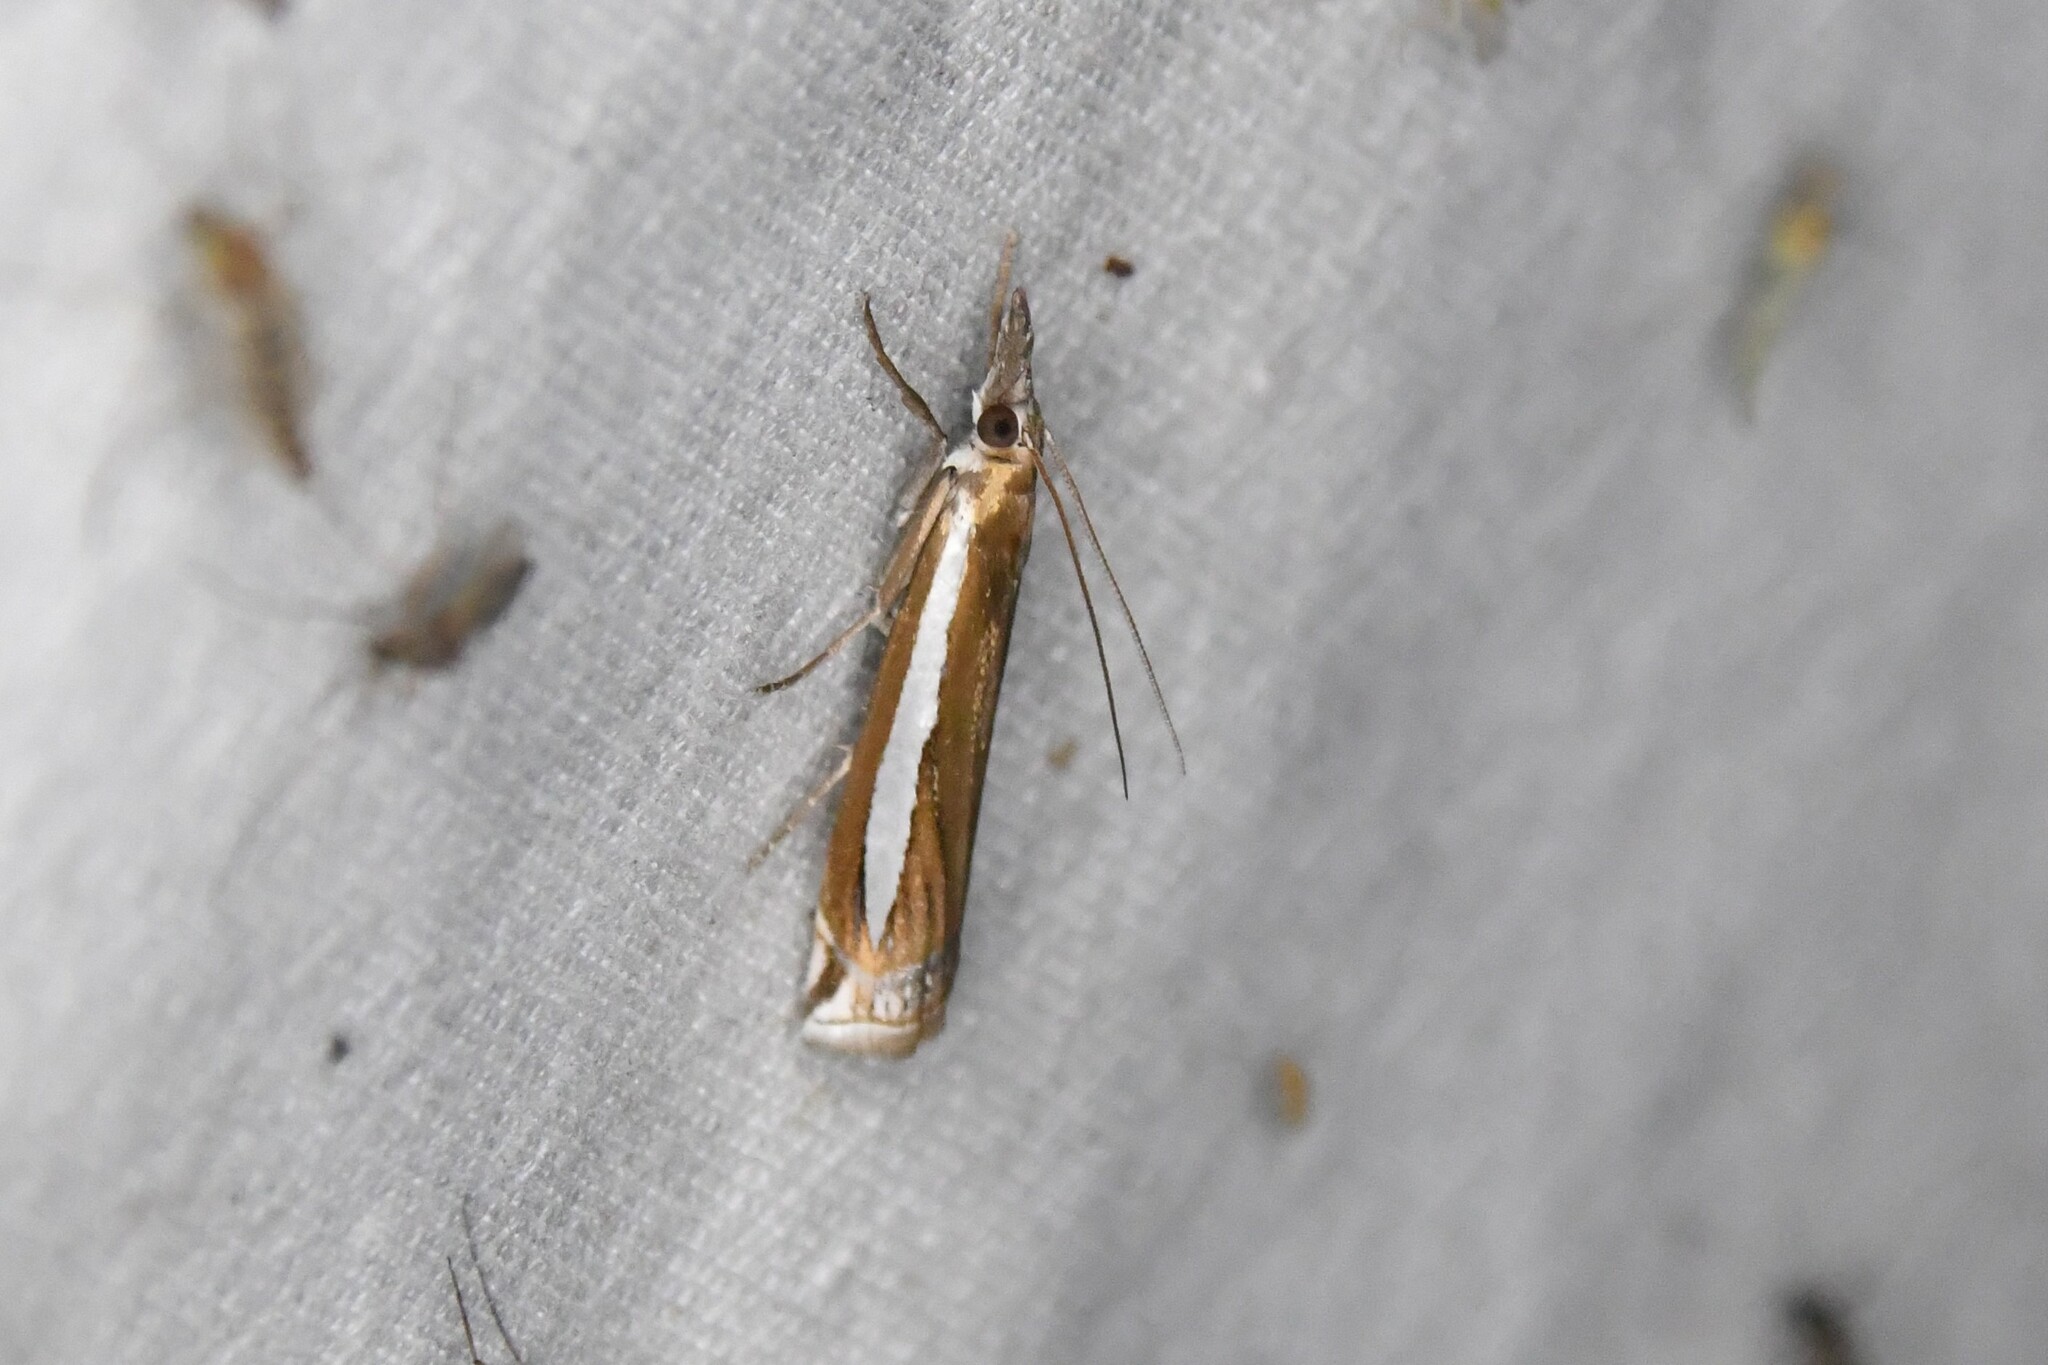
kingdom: Animalia
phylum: Arthropoda
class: Insecta
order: Lepidoptera
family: Crambidae
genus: Crambus
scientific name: Crambus praefectellus
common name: Common grass-veneer
